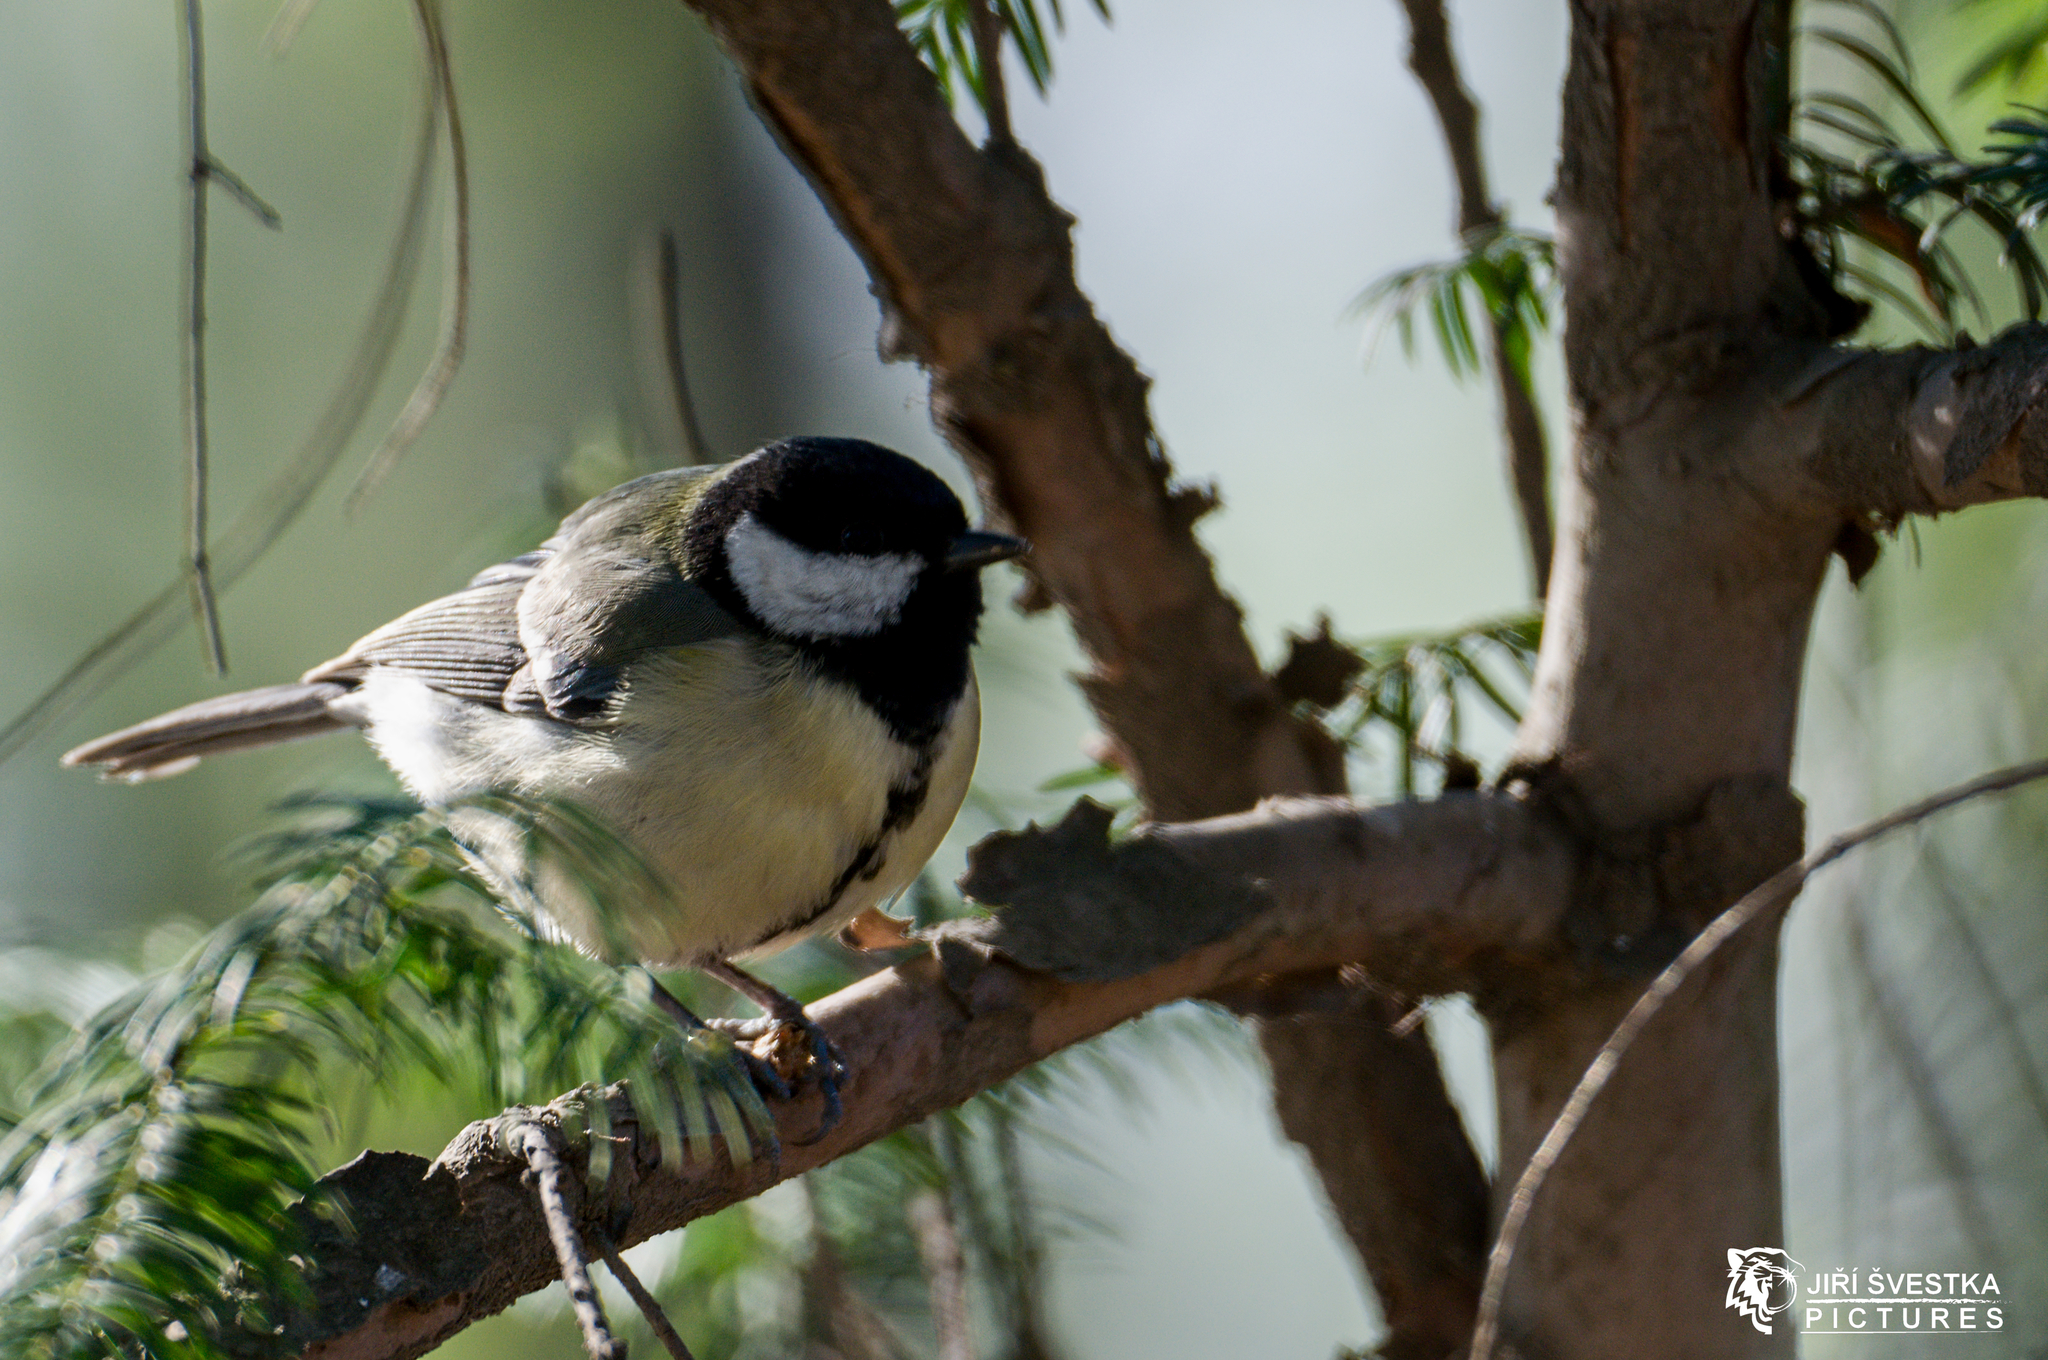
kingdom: Animalia
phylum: Chordata
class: Aves
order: Passeriformes
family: Paridae
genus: Parus
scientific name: Parus major
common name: Great tit
